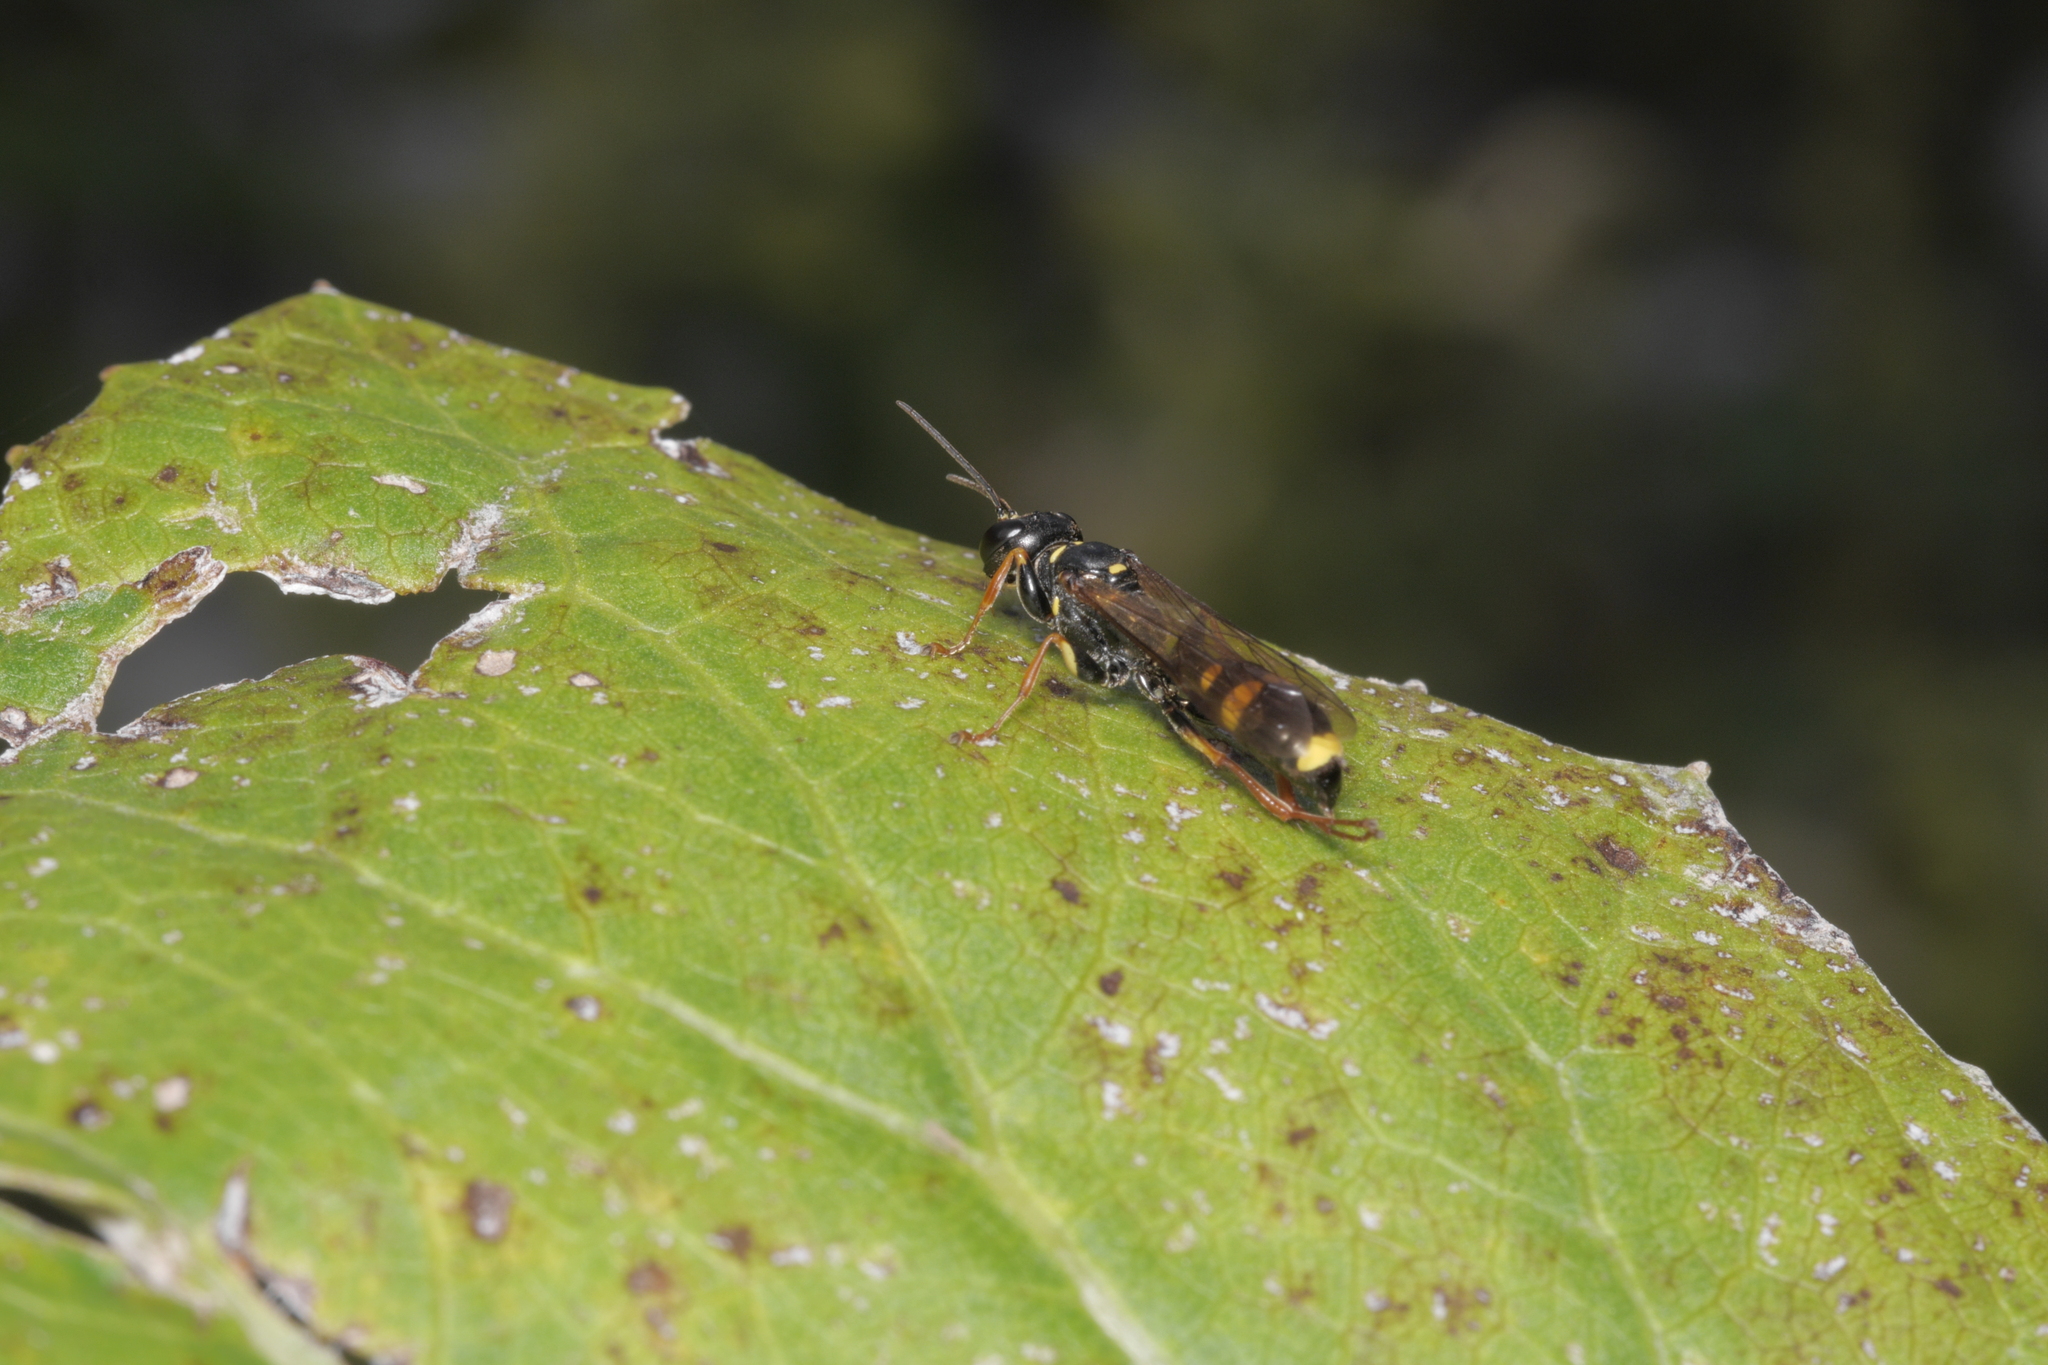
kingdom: Animalia
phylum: Arthropoda
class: Insecta
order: Hymenoptera
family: Crabronidae
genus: Mellinus
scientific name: Mellinus arvensis
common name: Field digger wasp
